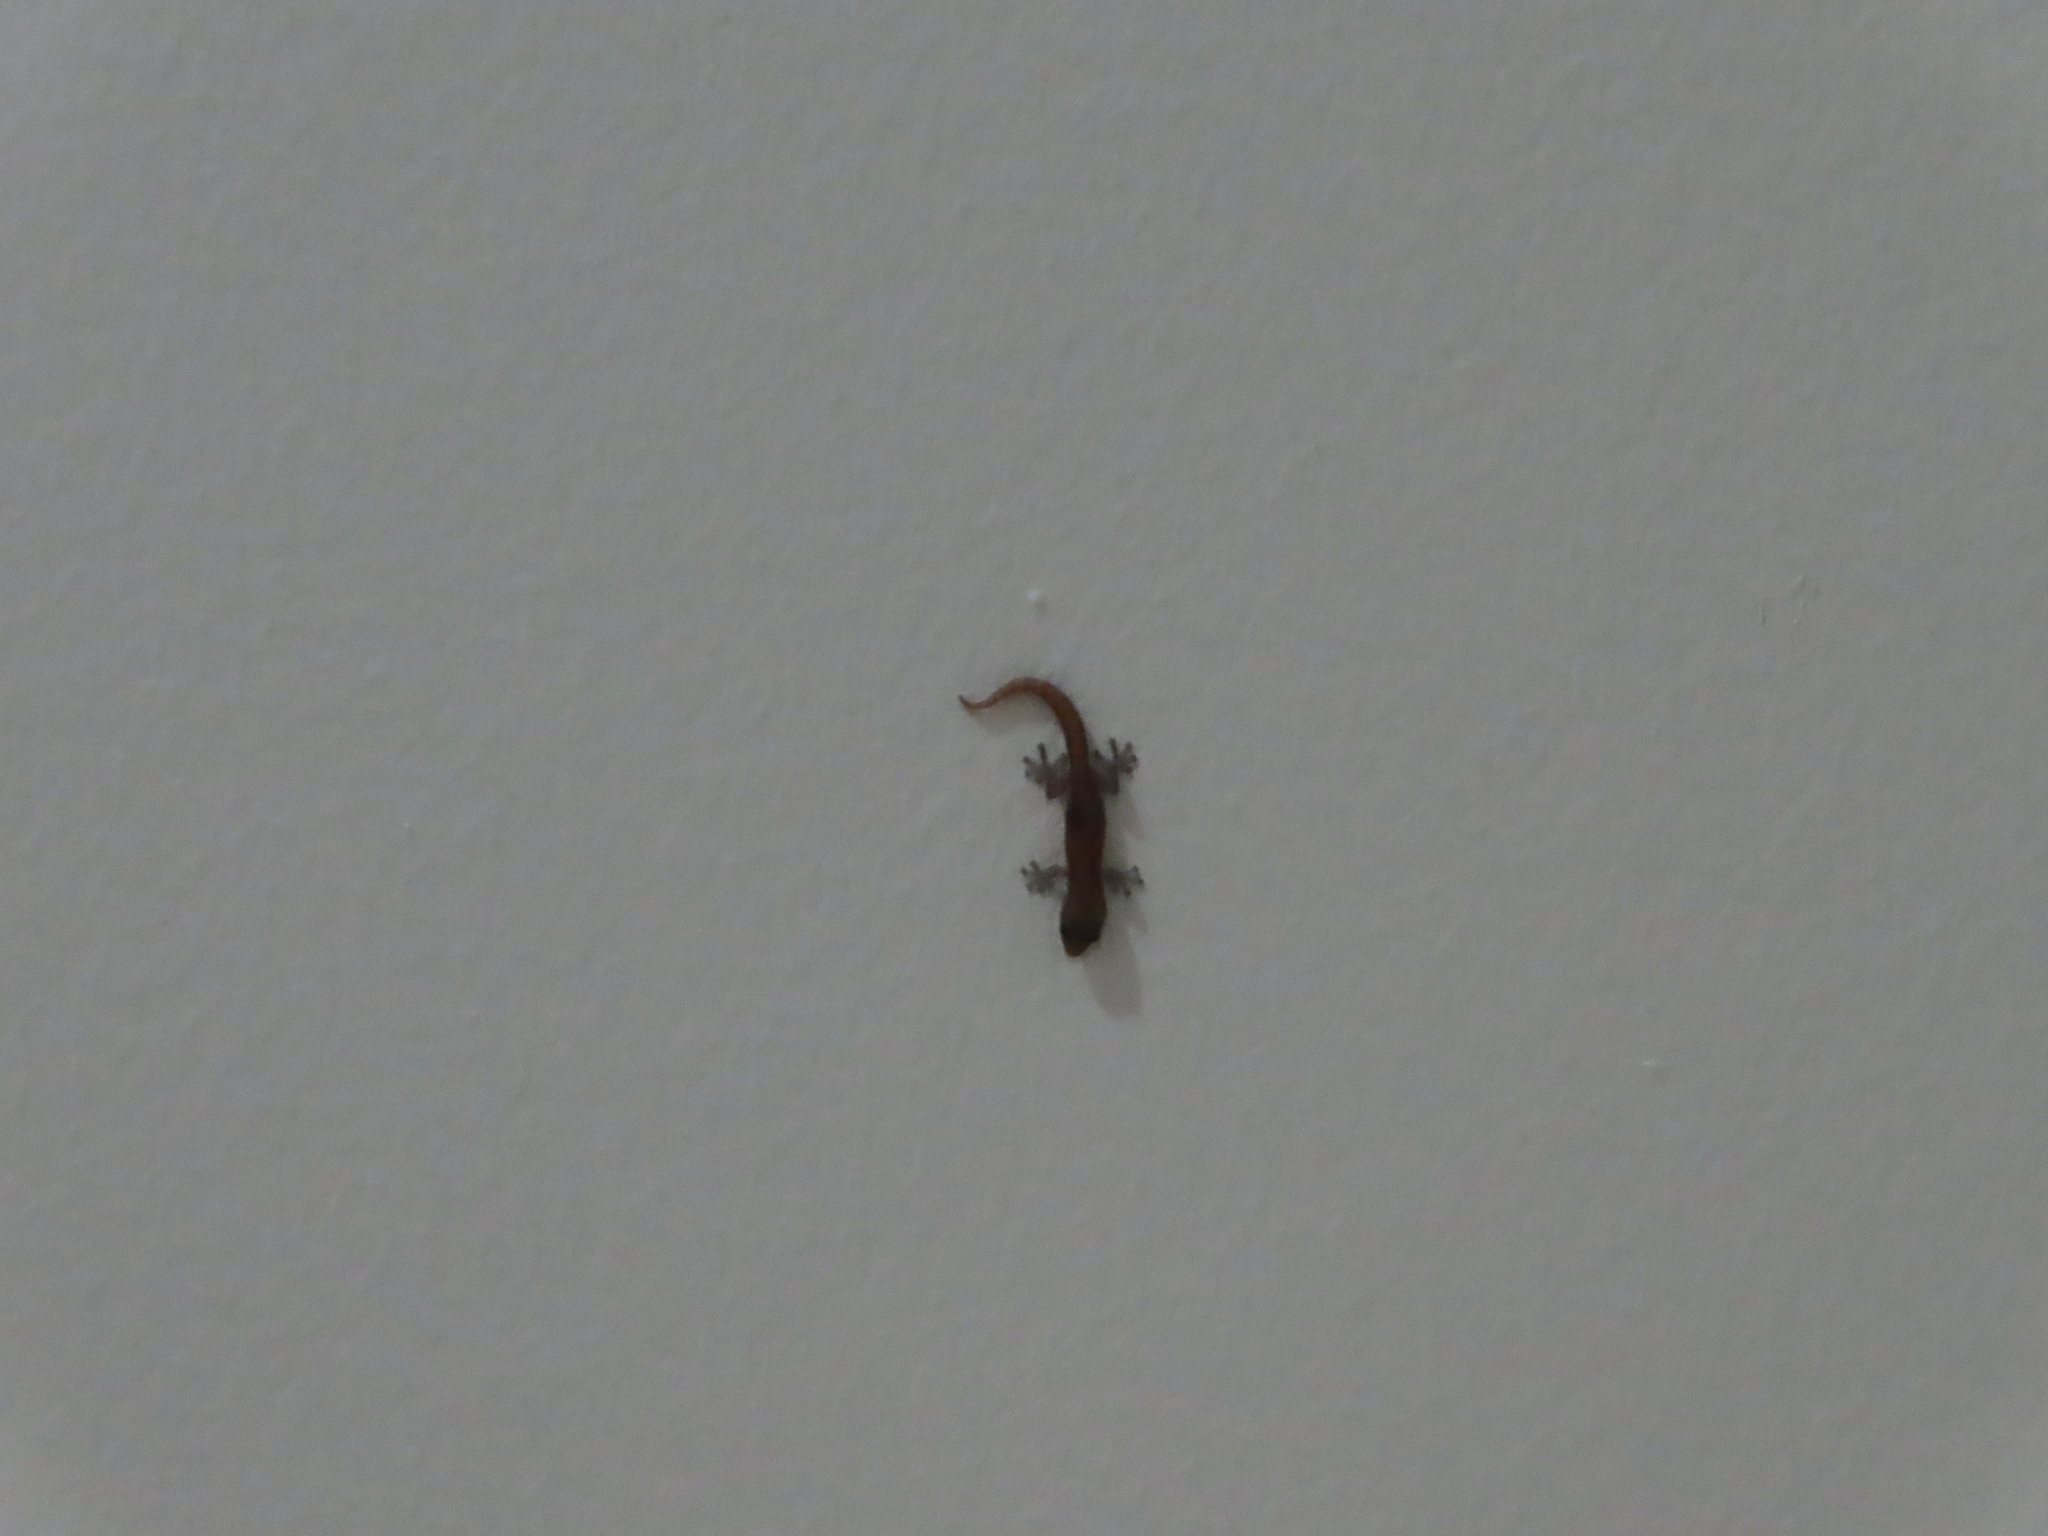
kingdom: Animalia
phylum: Chordata
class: Squamata
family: Gekkonidae
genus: Afrogecko
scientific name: Afrogecko porphyreus
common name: Marbled leaf-toed gecko
